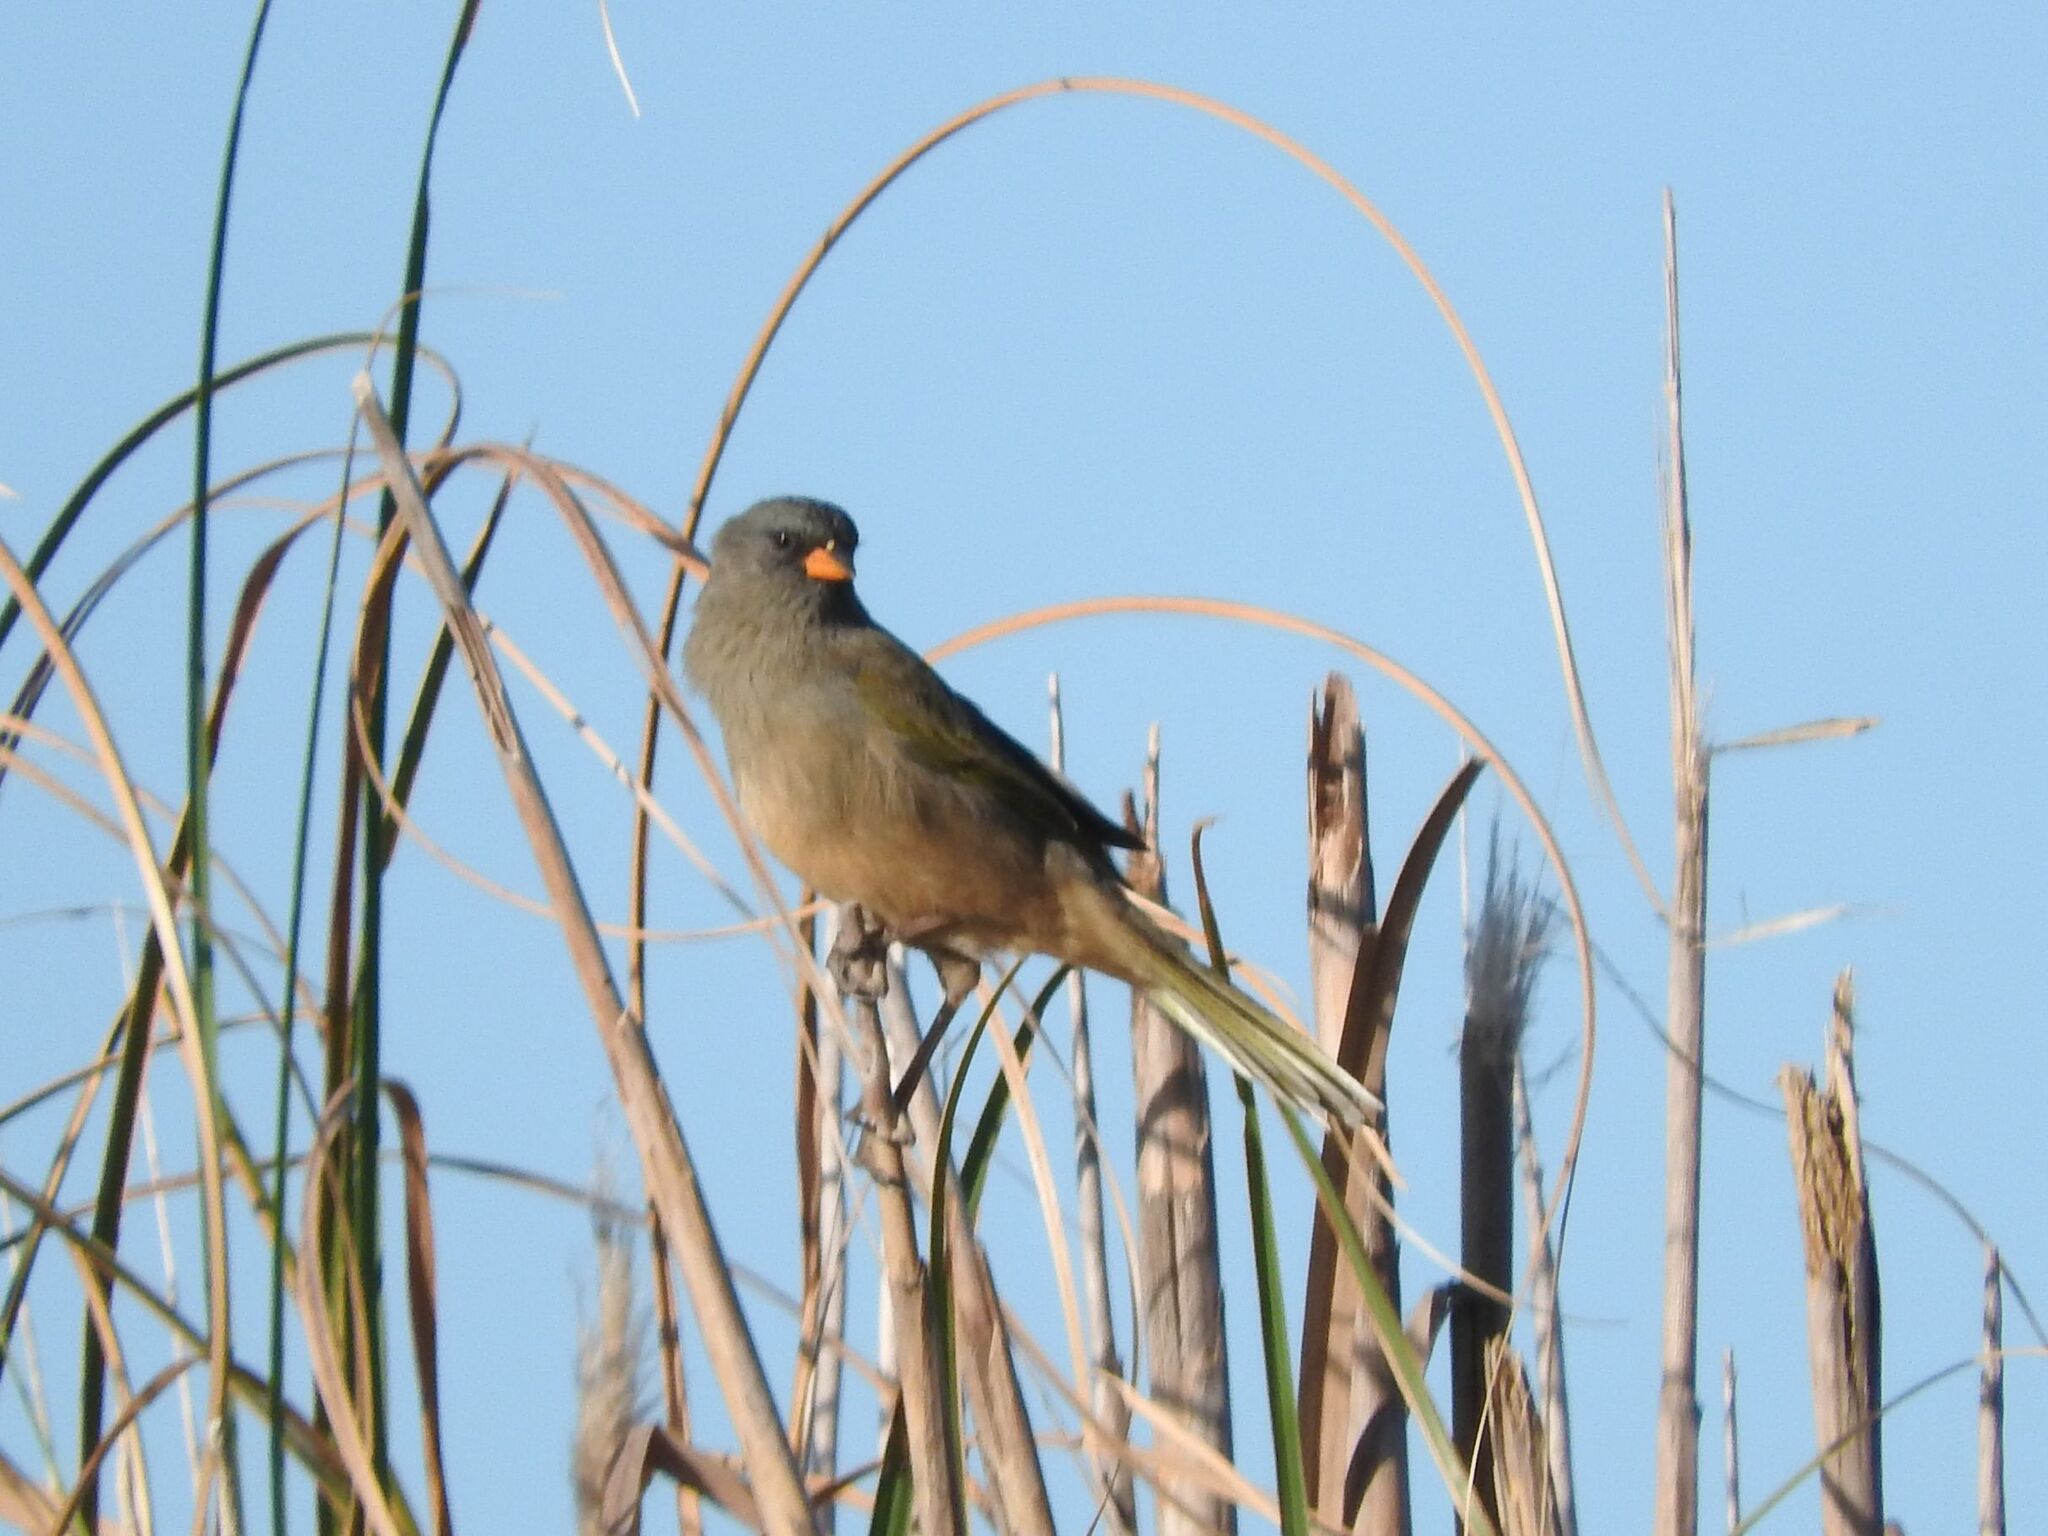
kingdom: Animalia
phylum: Chordata
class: Aves
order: Passeriformes
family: Thraupidae
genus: Embernagra
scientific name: Embernagra platensis
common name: Pampa finch
